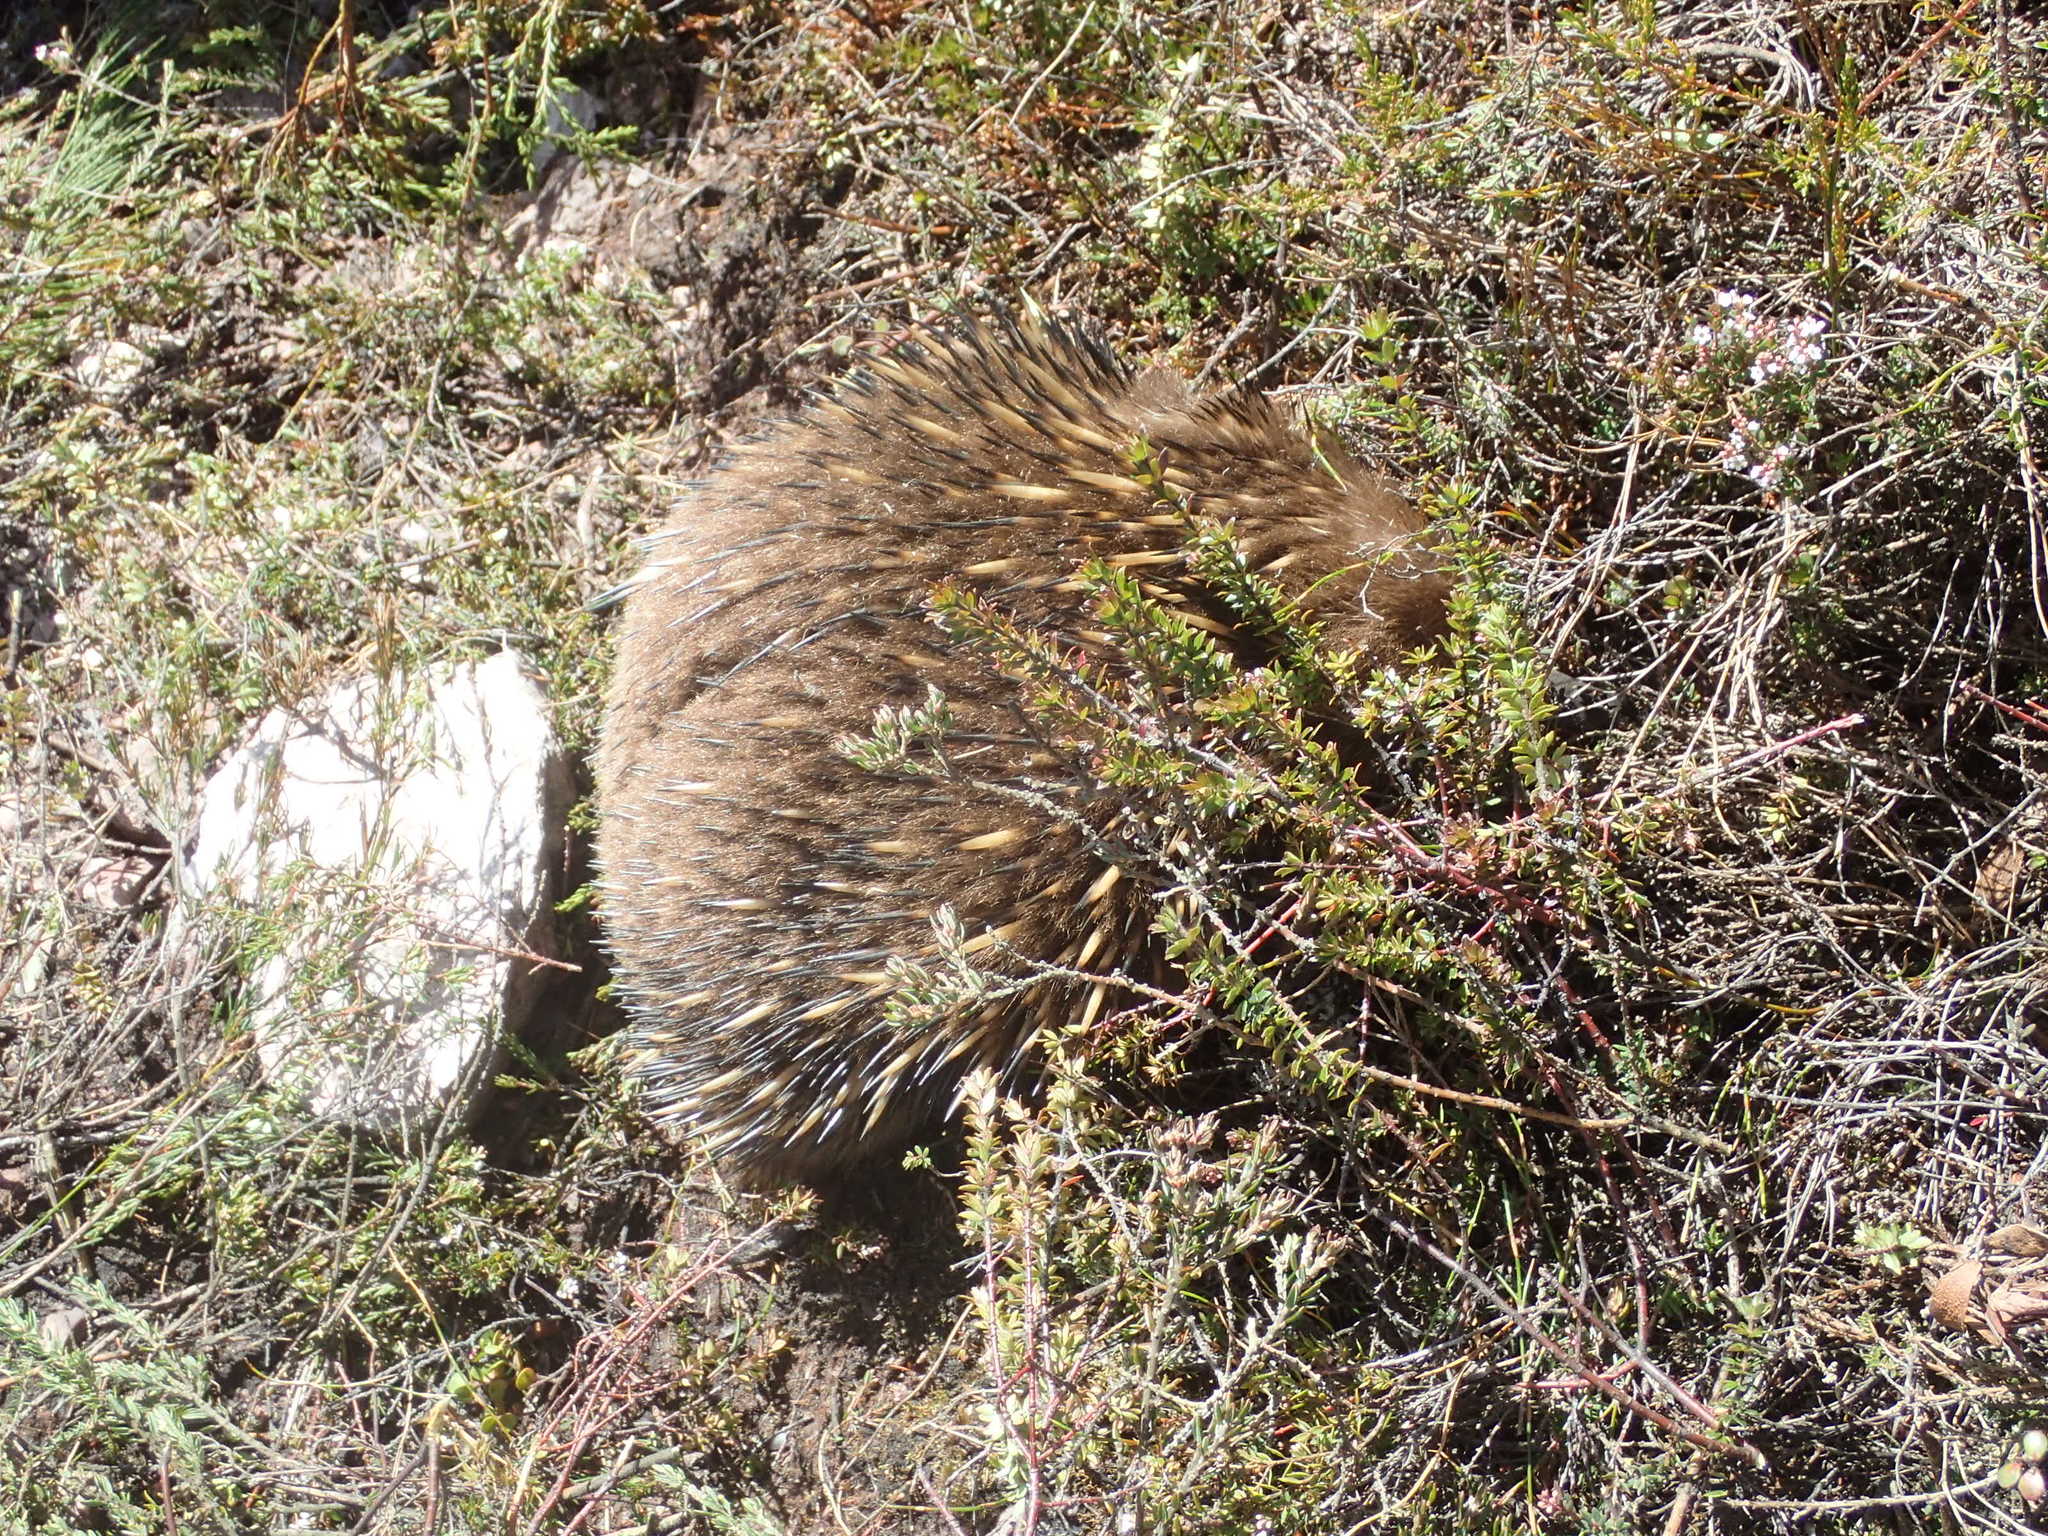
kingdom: Animalia
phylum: Chordata
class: Mammalia
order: Monotremata
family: Tachyglossidae
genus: Tachyglossus
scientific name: Tachyglossus aculeatus
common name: Short-beaked echidna
